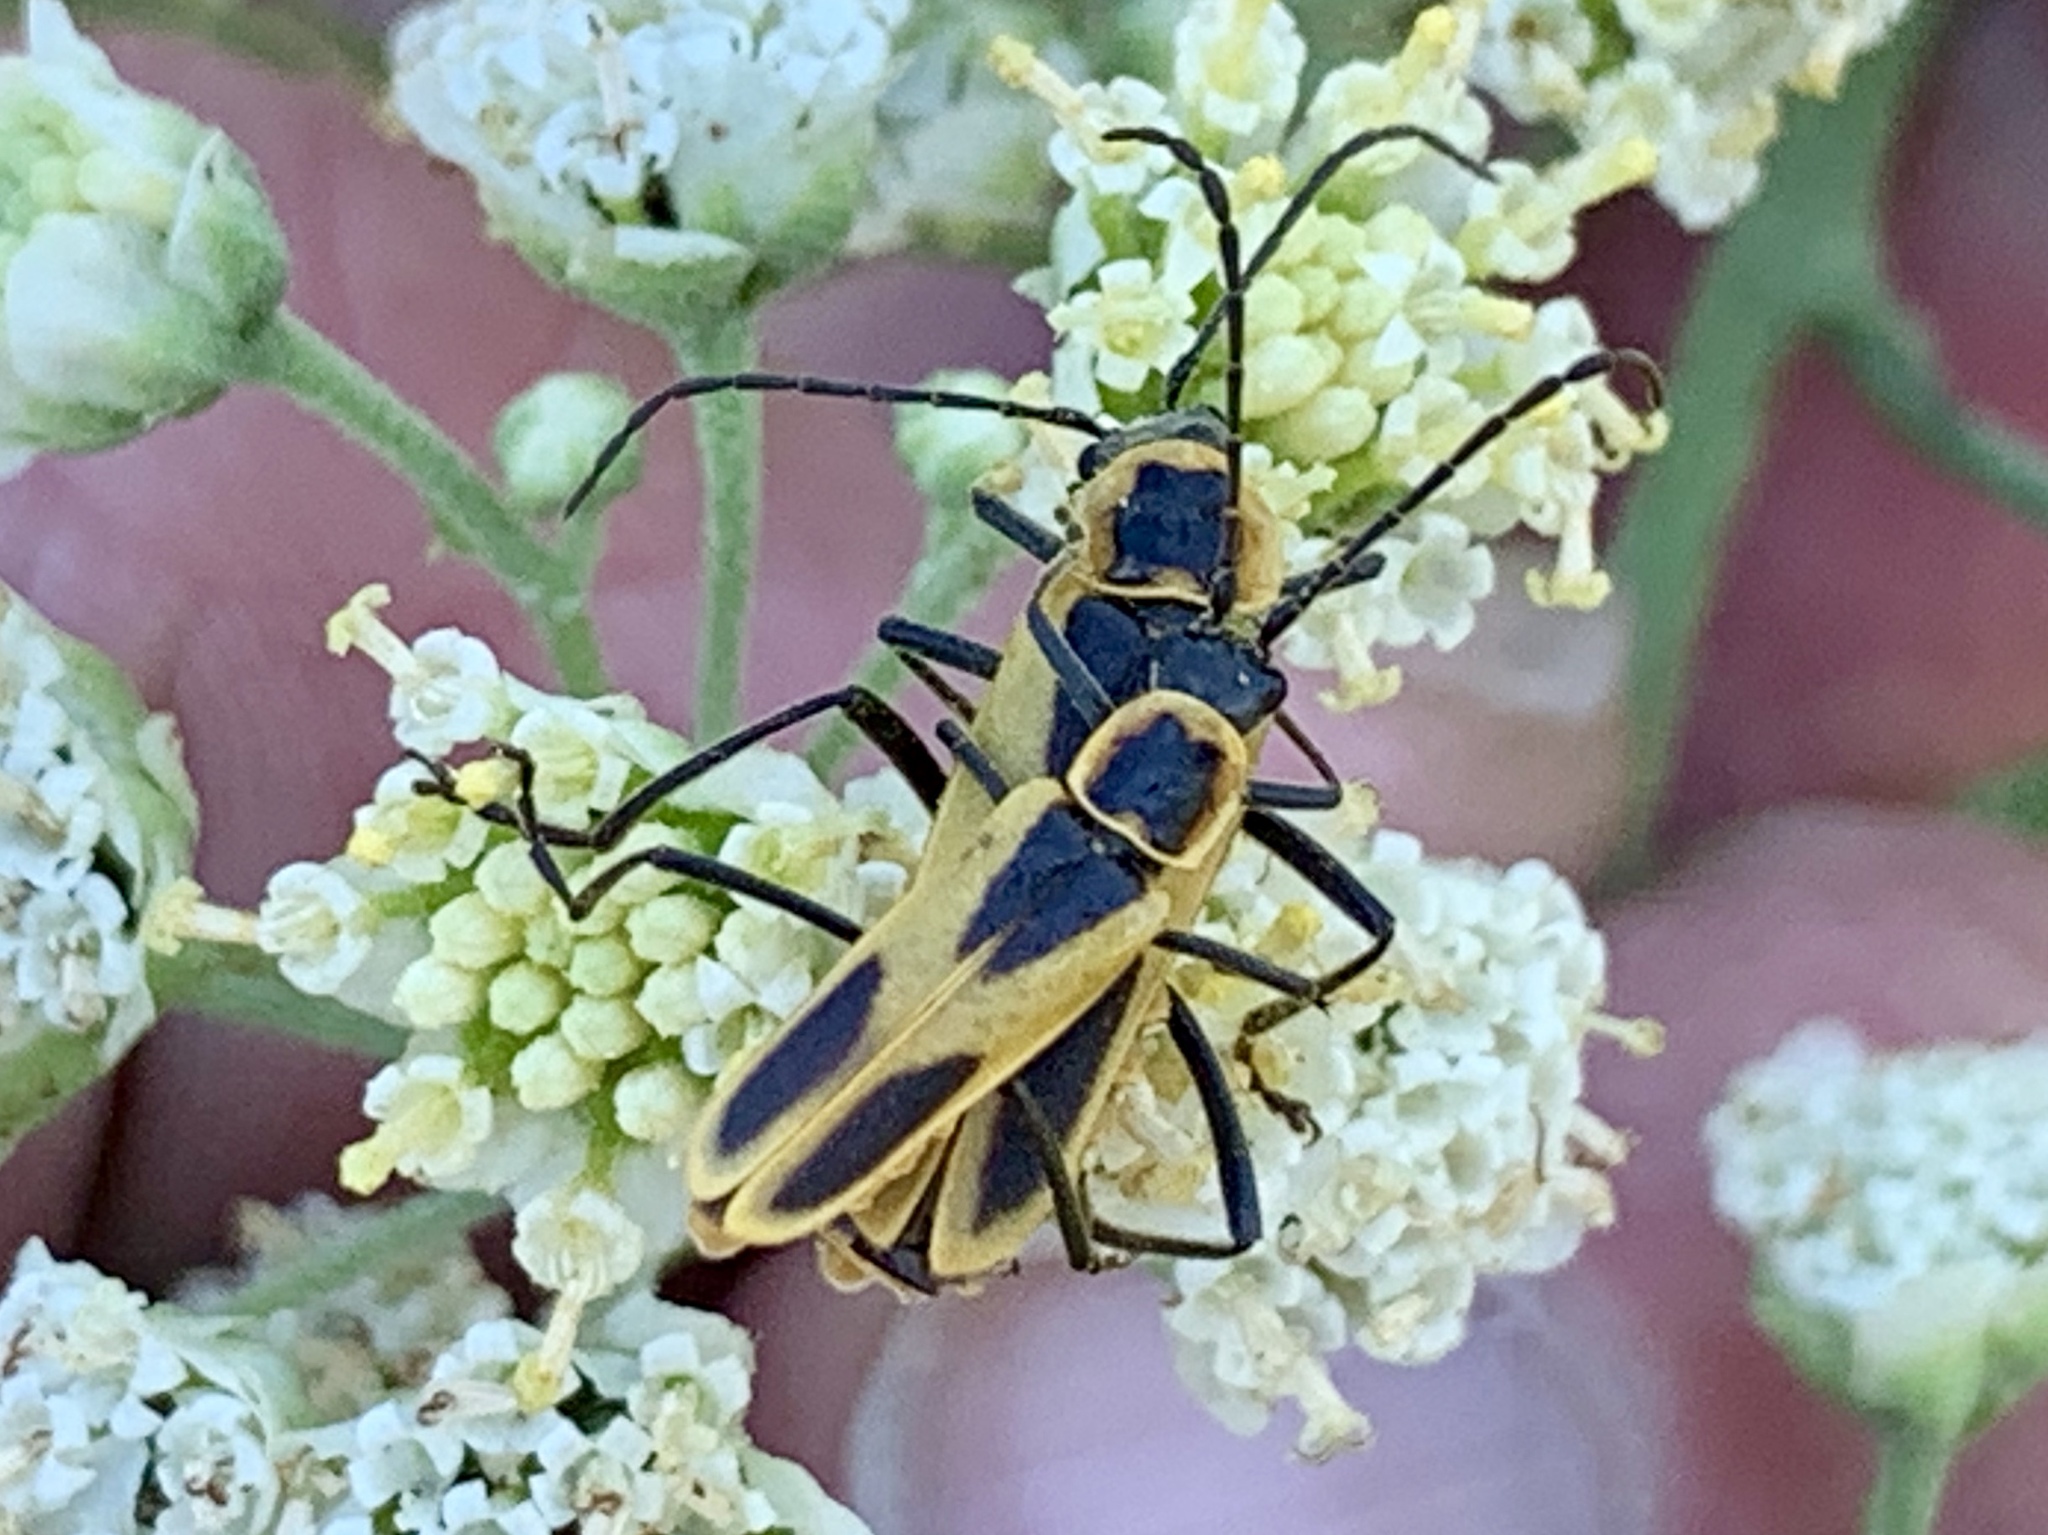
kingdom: Animalia
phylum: Arthropoda
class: Insecta
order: Coleoptera
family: Cantharidae
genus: Chauliognathus
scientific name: Chauliognathus scutellaris
